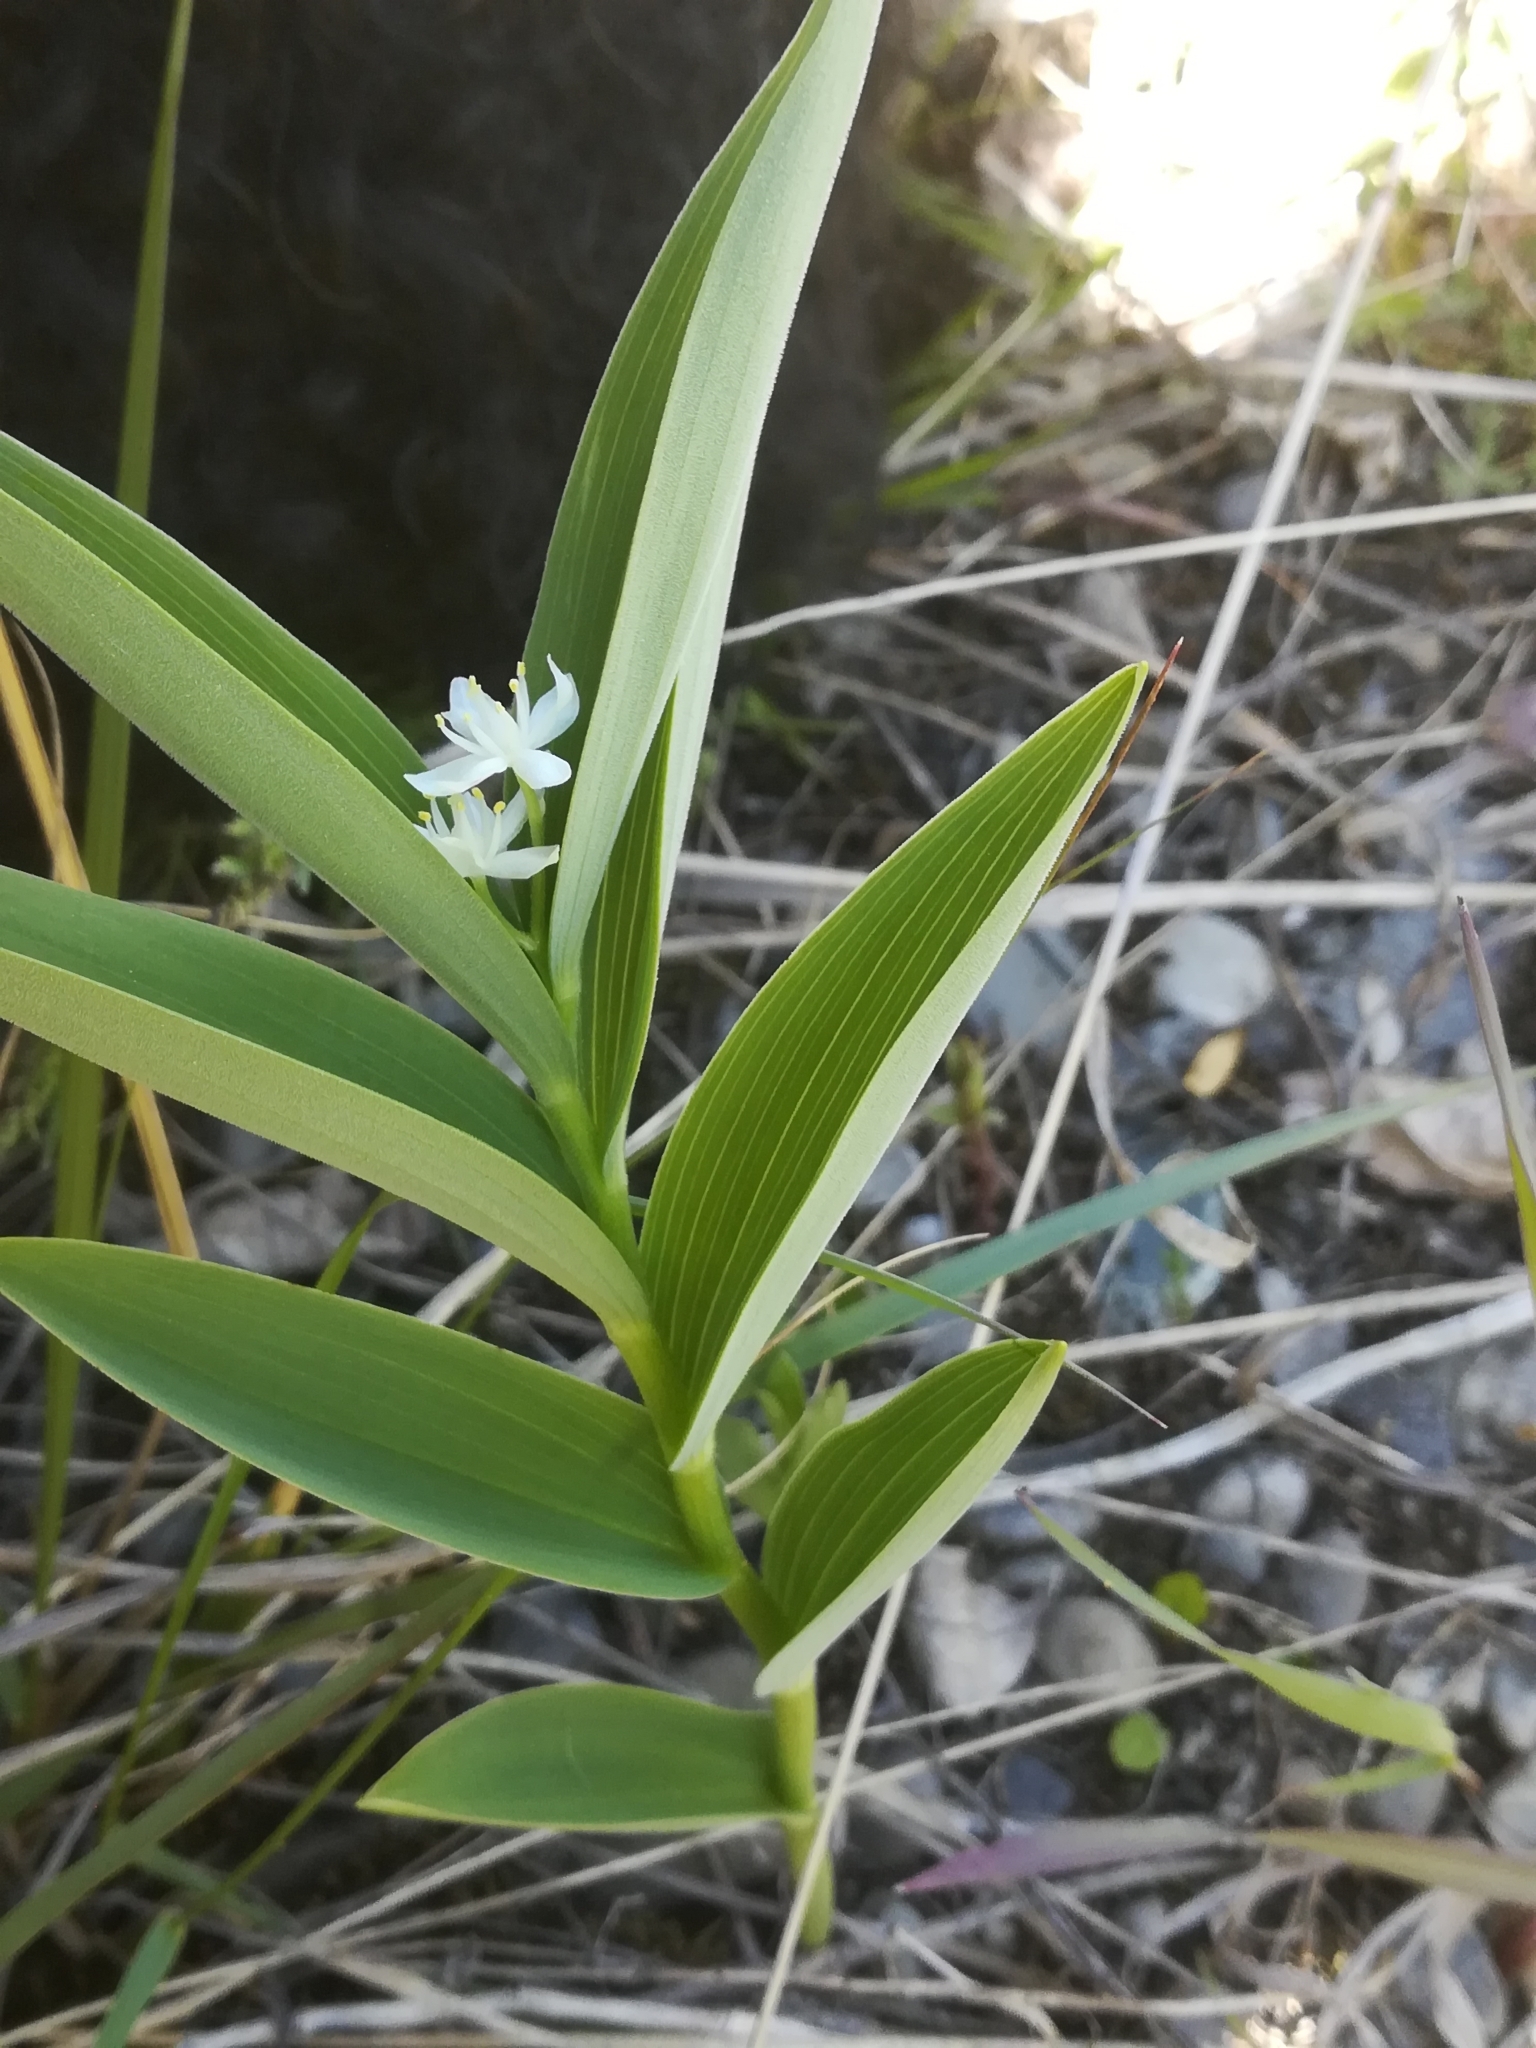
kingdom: Plantae
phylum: Tracheophyta
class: Liliopsida
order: Asparagales
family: Asparagaceae
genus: Maianthemum
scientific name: Maianthemum stellatum
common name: Little false solomon's seal
